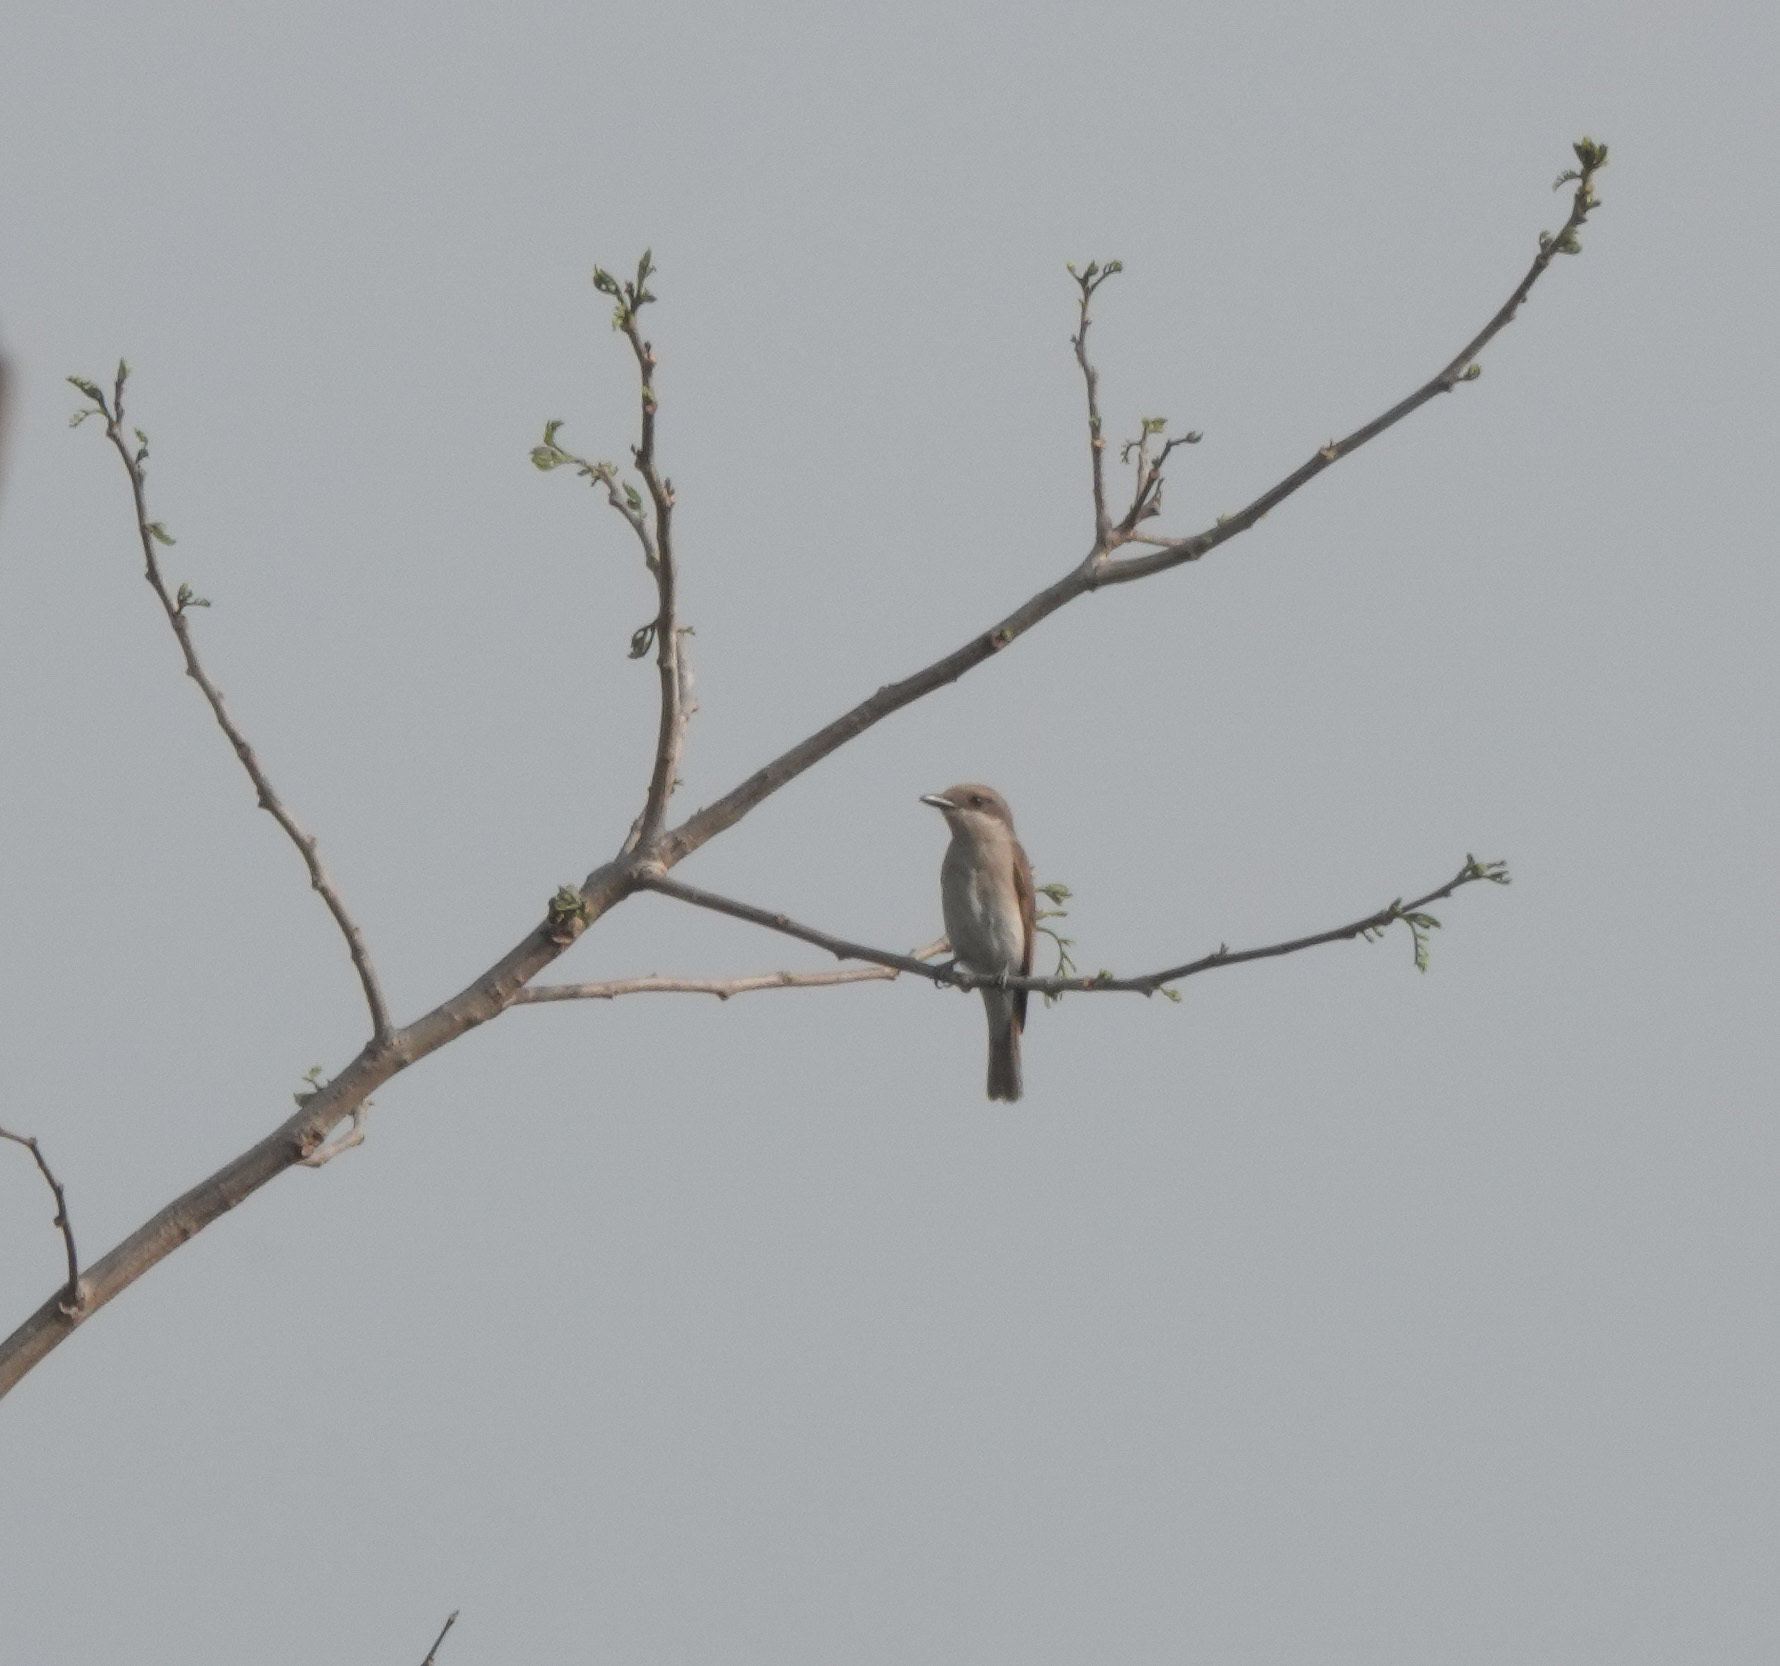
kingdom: Animalia
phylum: Chordata
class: Aves
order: Passeriformes
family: Tephrodornithidae
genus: Tephrodornis
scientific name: Tephrodornis pondicerianus
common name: Common woodshrike
